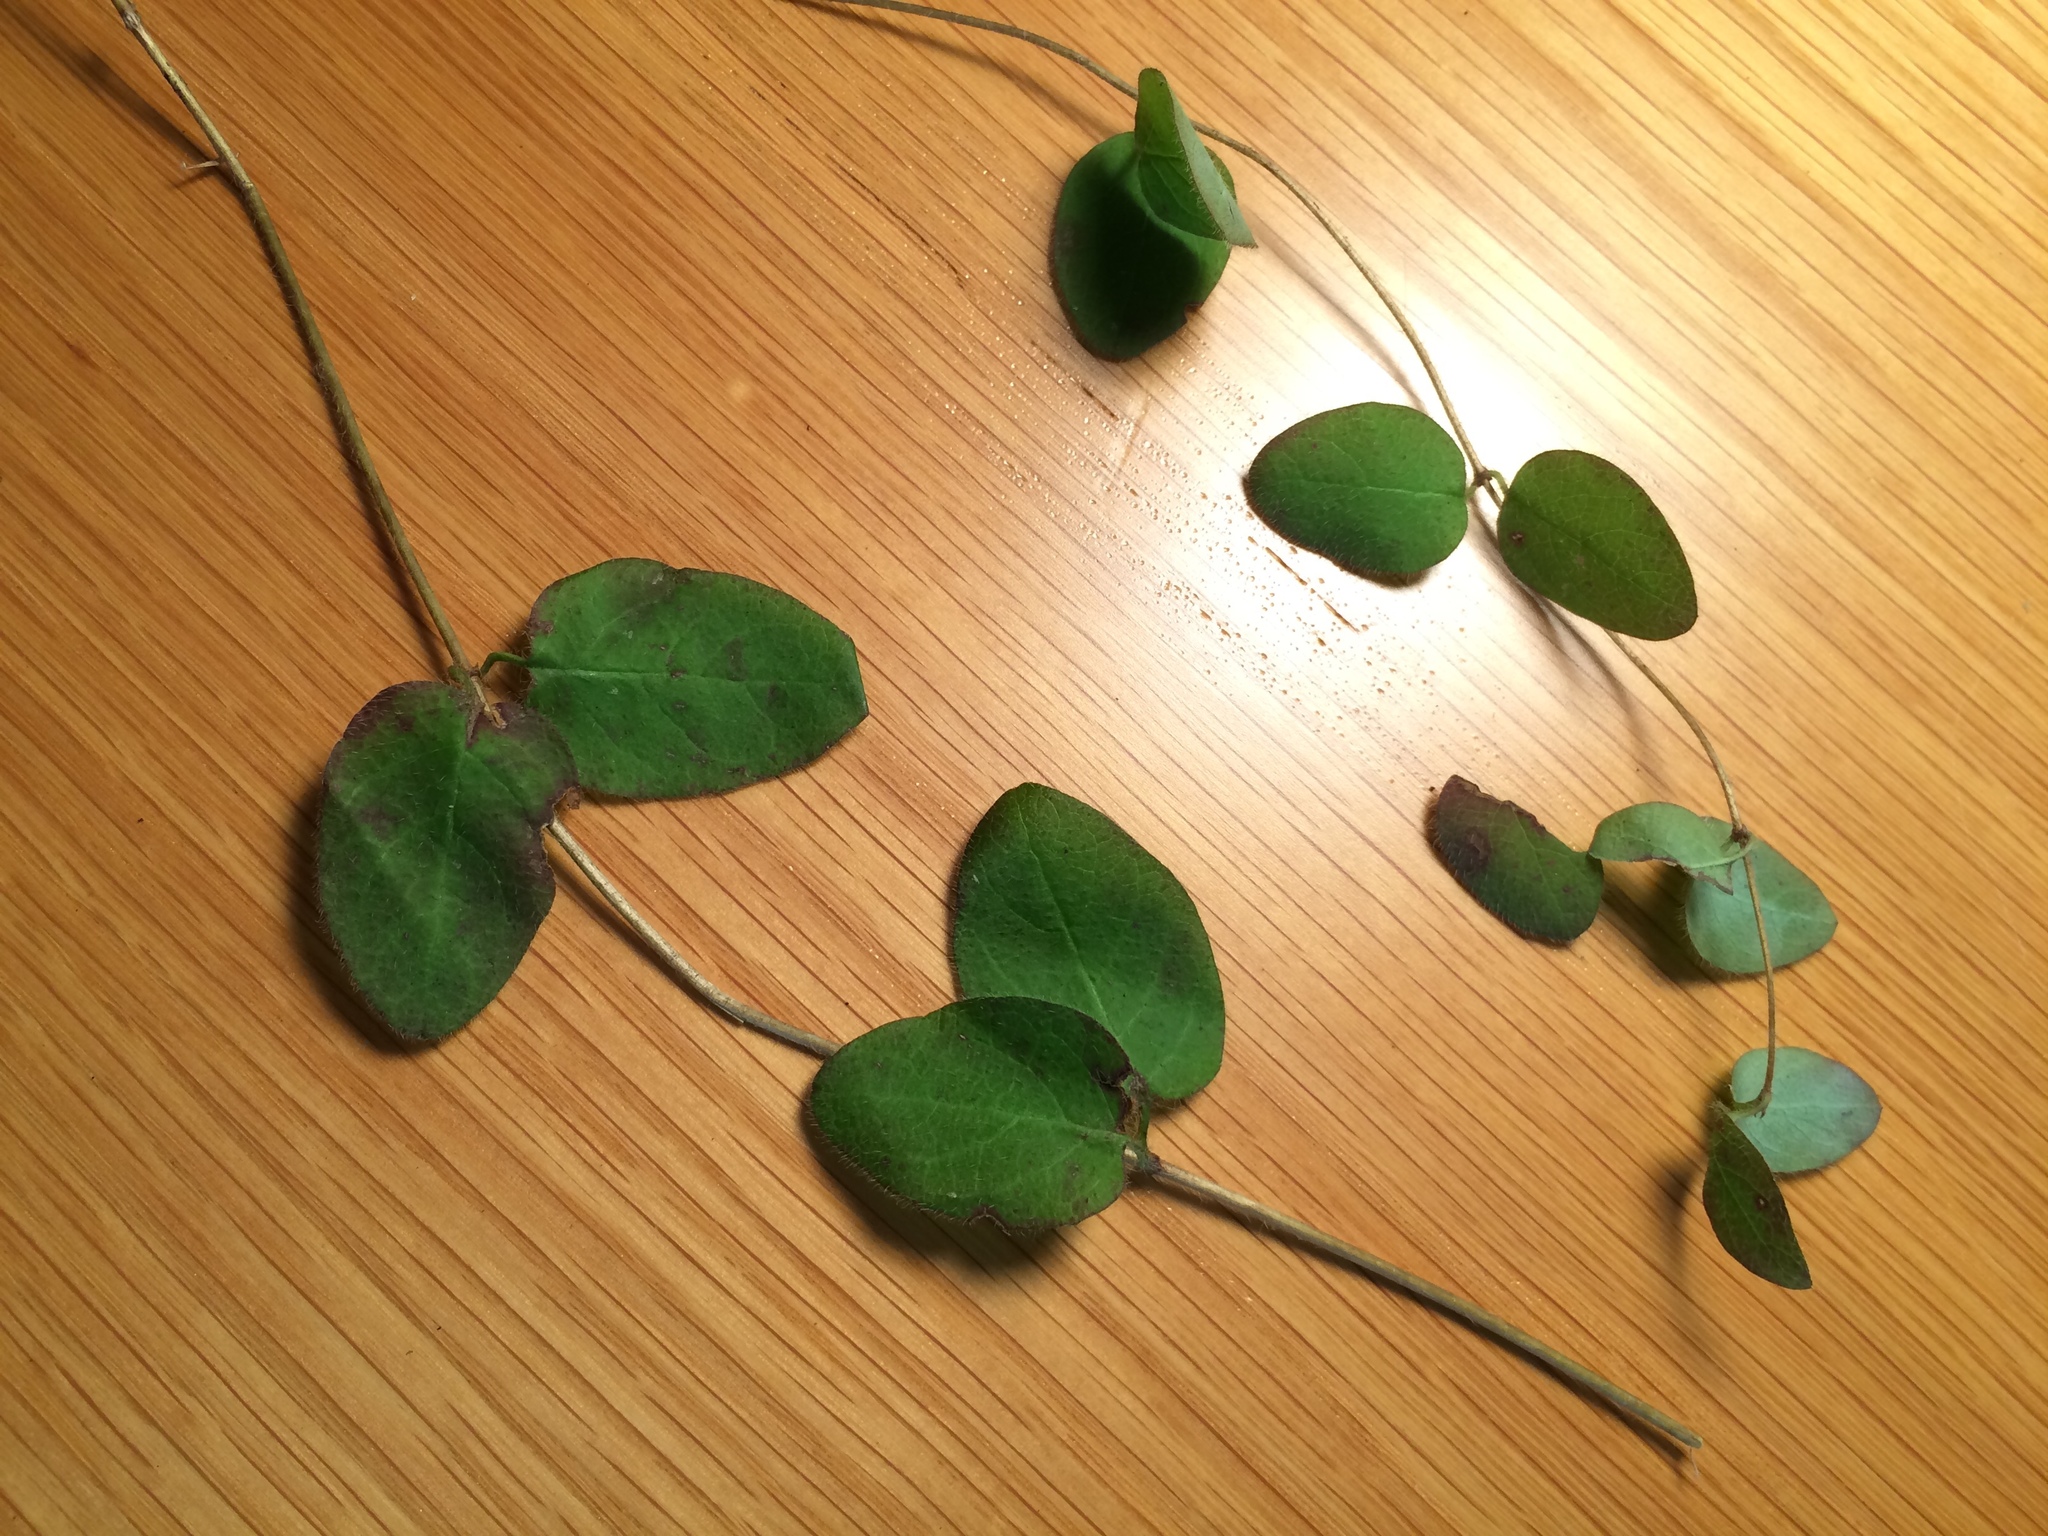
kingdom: Plantae
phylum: Tracheophyta
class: Magnoliopsida
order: Dipsacales
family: Caprifoliaceae
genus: Lonicera
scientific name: Lonicera hispidula
